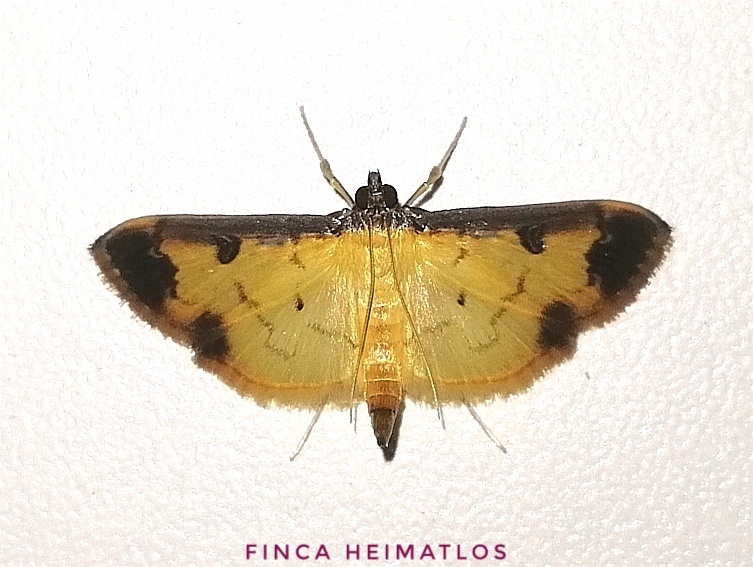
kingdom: Animalia
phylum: Arthropoda
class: Insecta
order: Lepidoptera
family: Crambidae
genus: Eulepte
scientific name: Eulepte inguinalis
